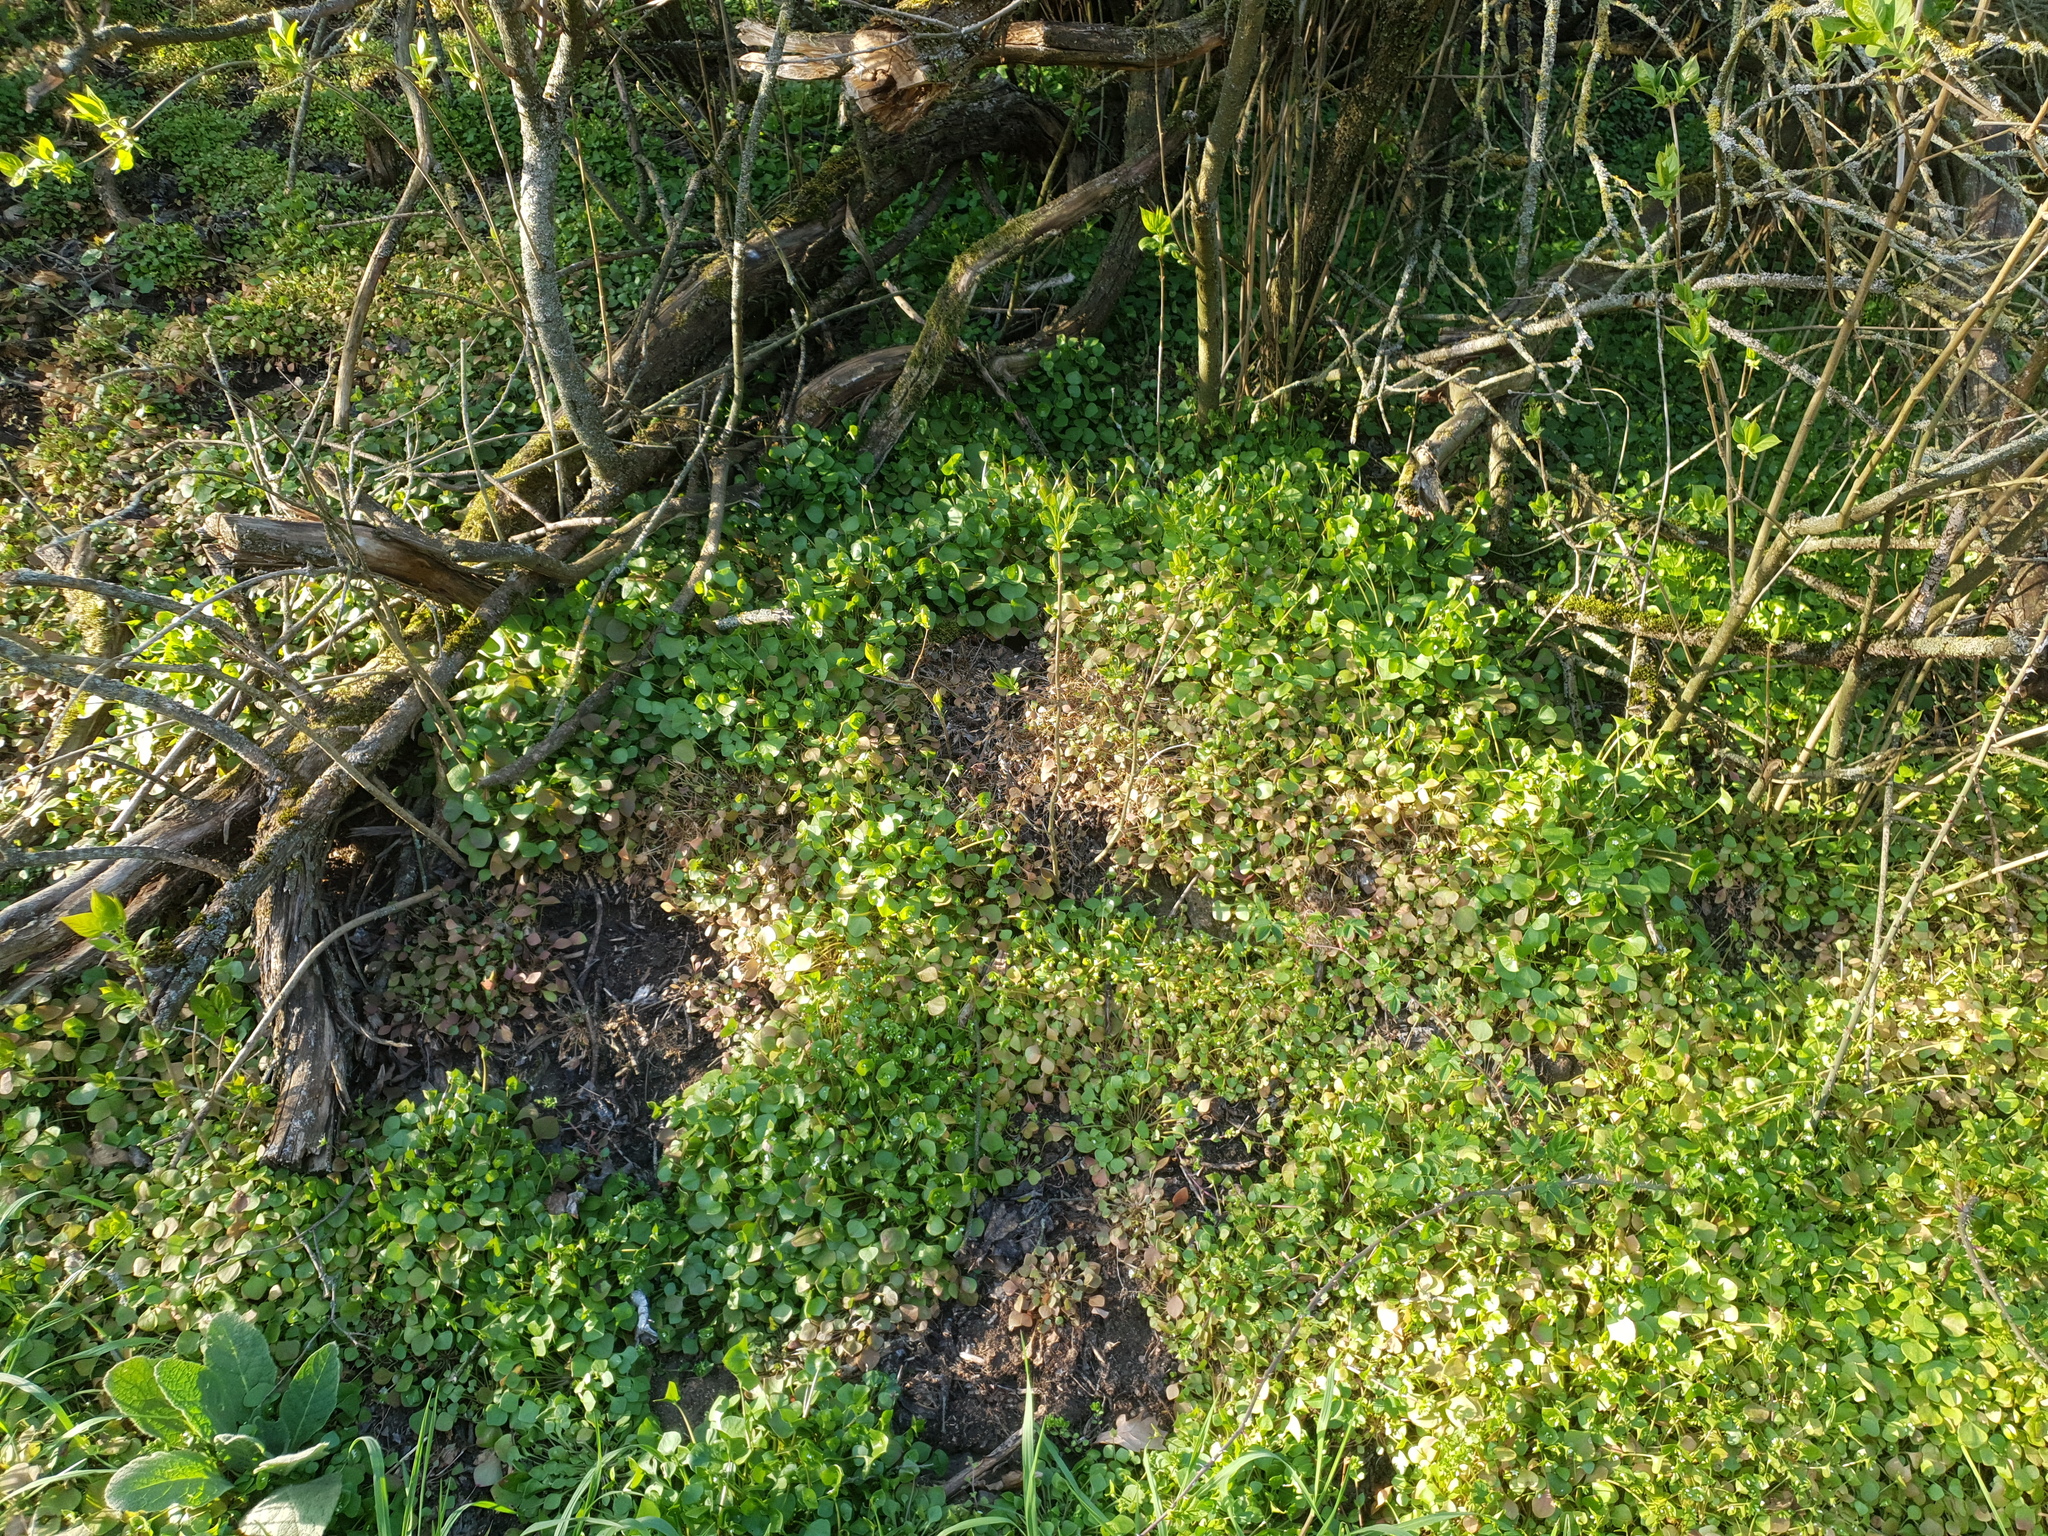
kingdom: Plantae
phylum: Tracheophyta
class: Magnoliopsida
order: Caryophyllales
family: Montiaceae
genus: Claytonia
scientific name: Claytonia perfoliata
